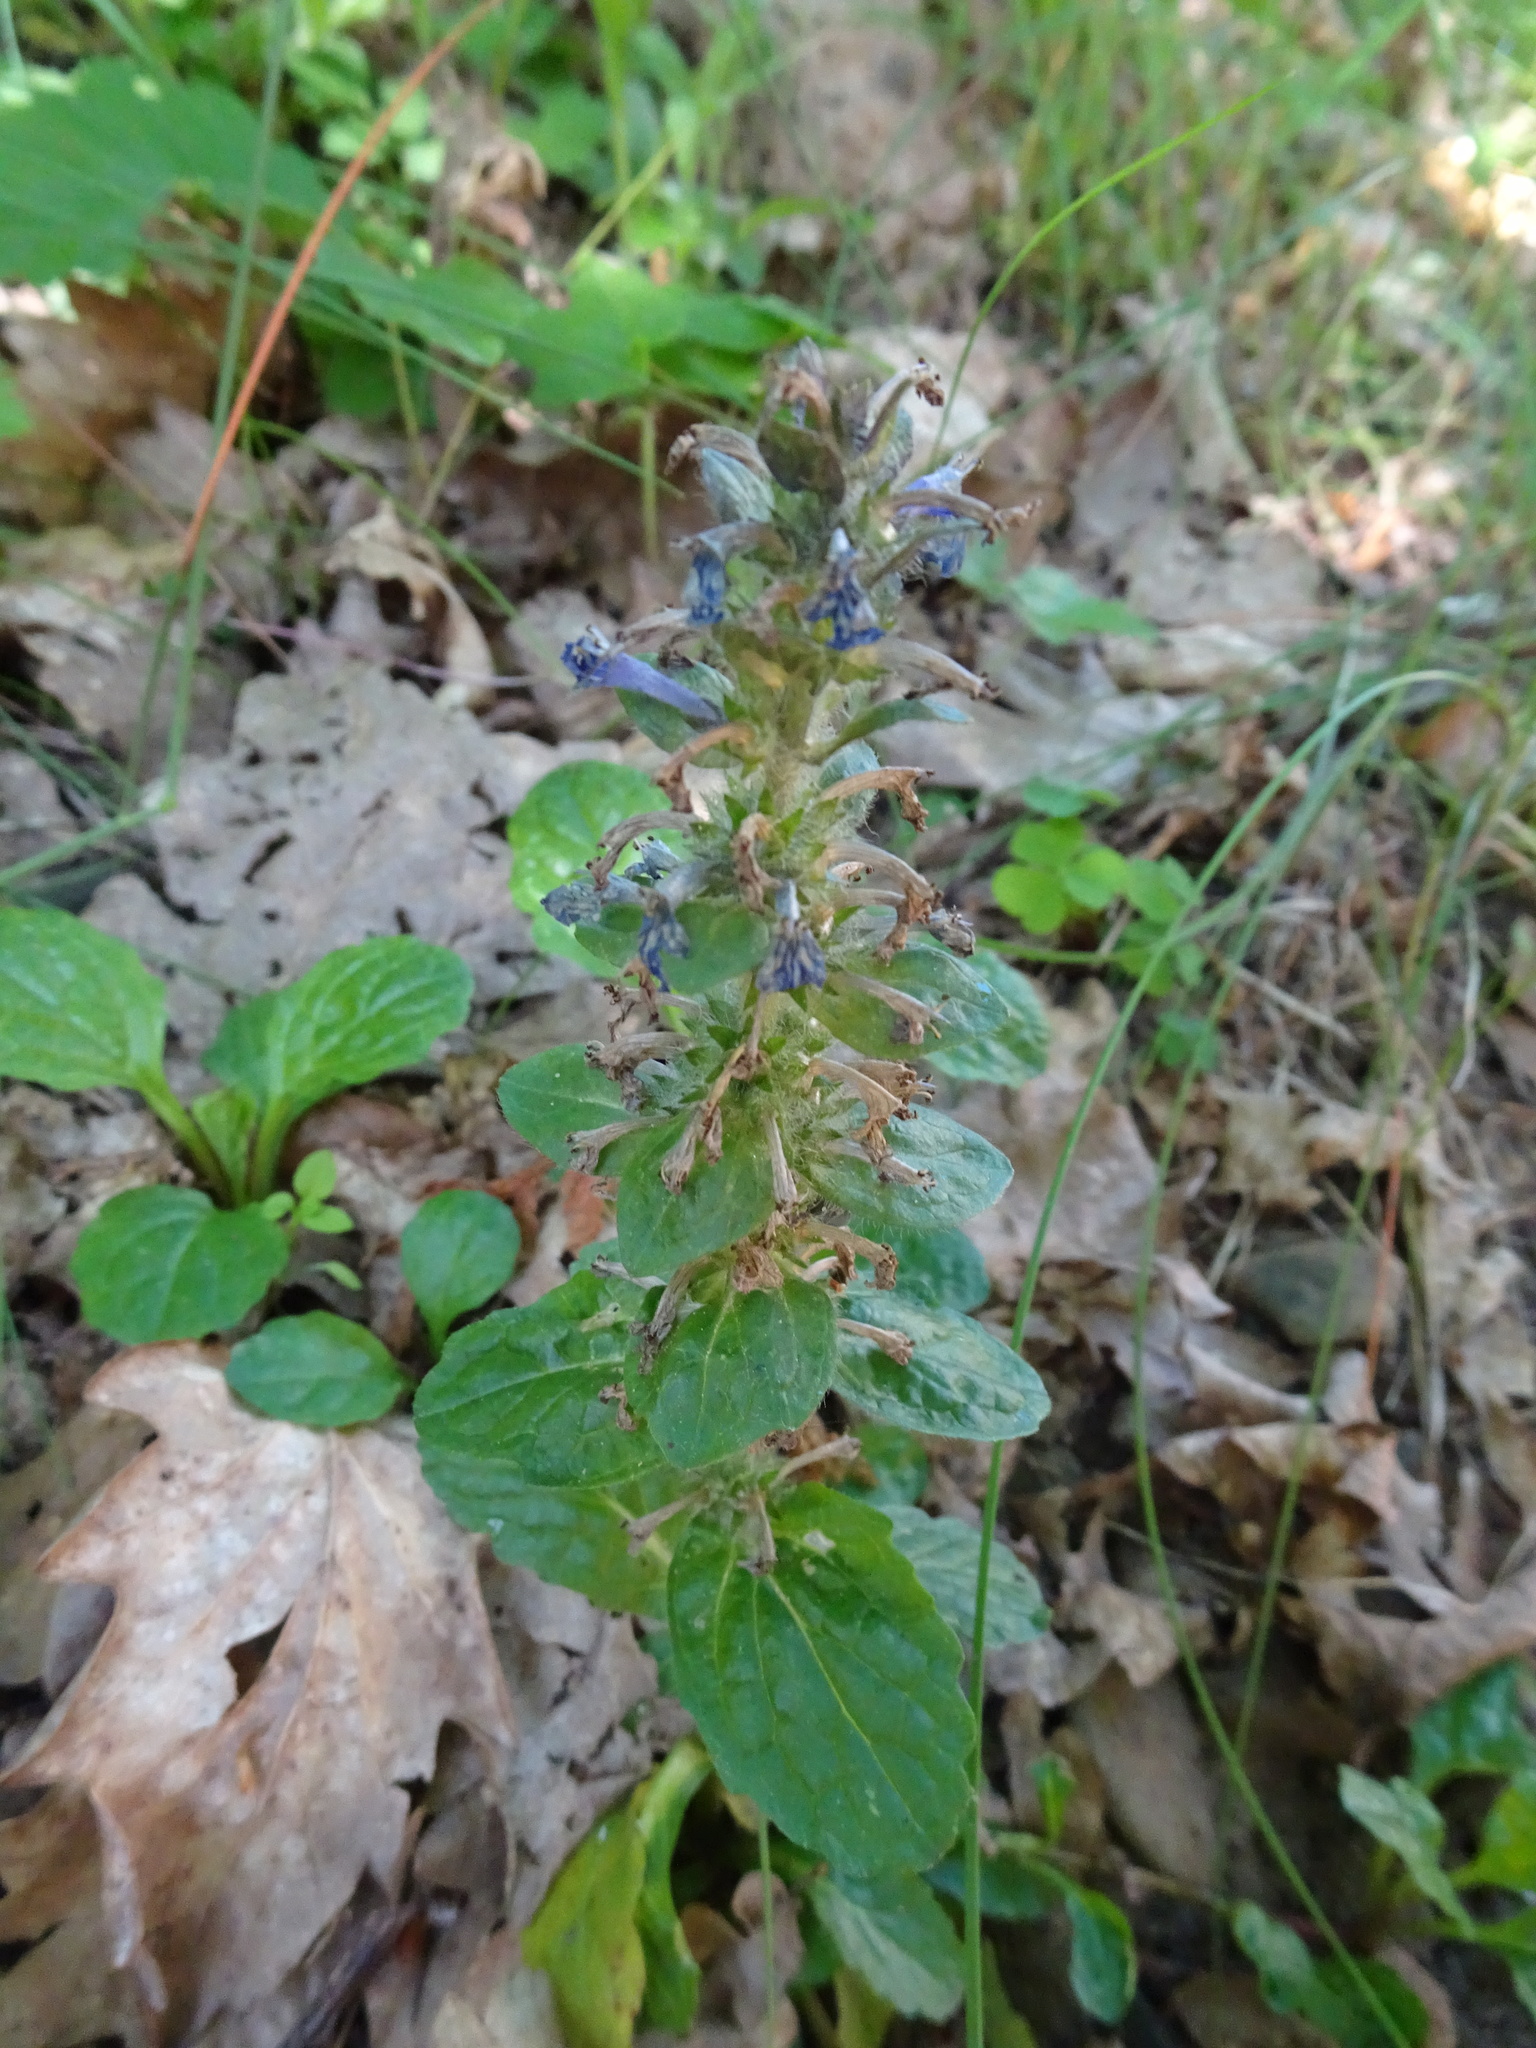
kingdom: Plantae
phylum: Tracheophyta
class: Magnoliopsida
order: Lamiales
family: Lamiaceae
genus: Ajuga
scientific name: Ajuga reptans
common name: Bugle
